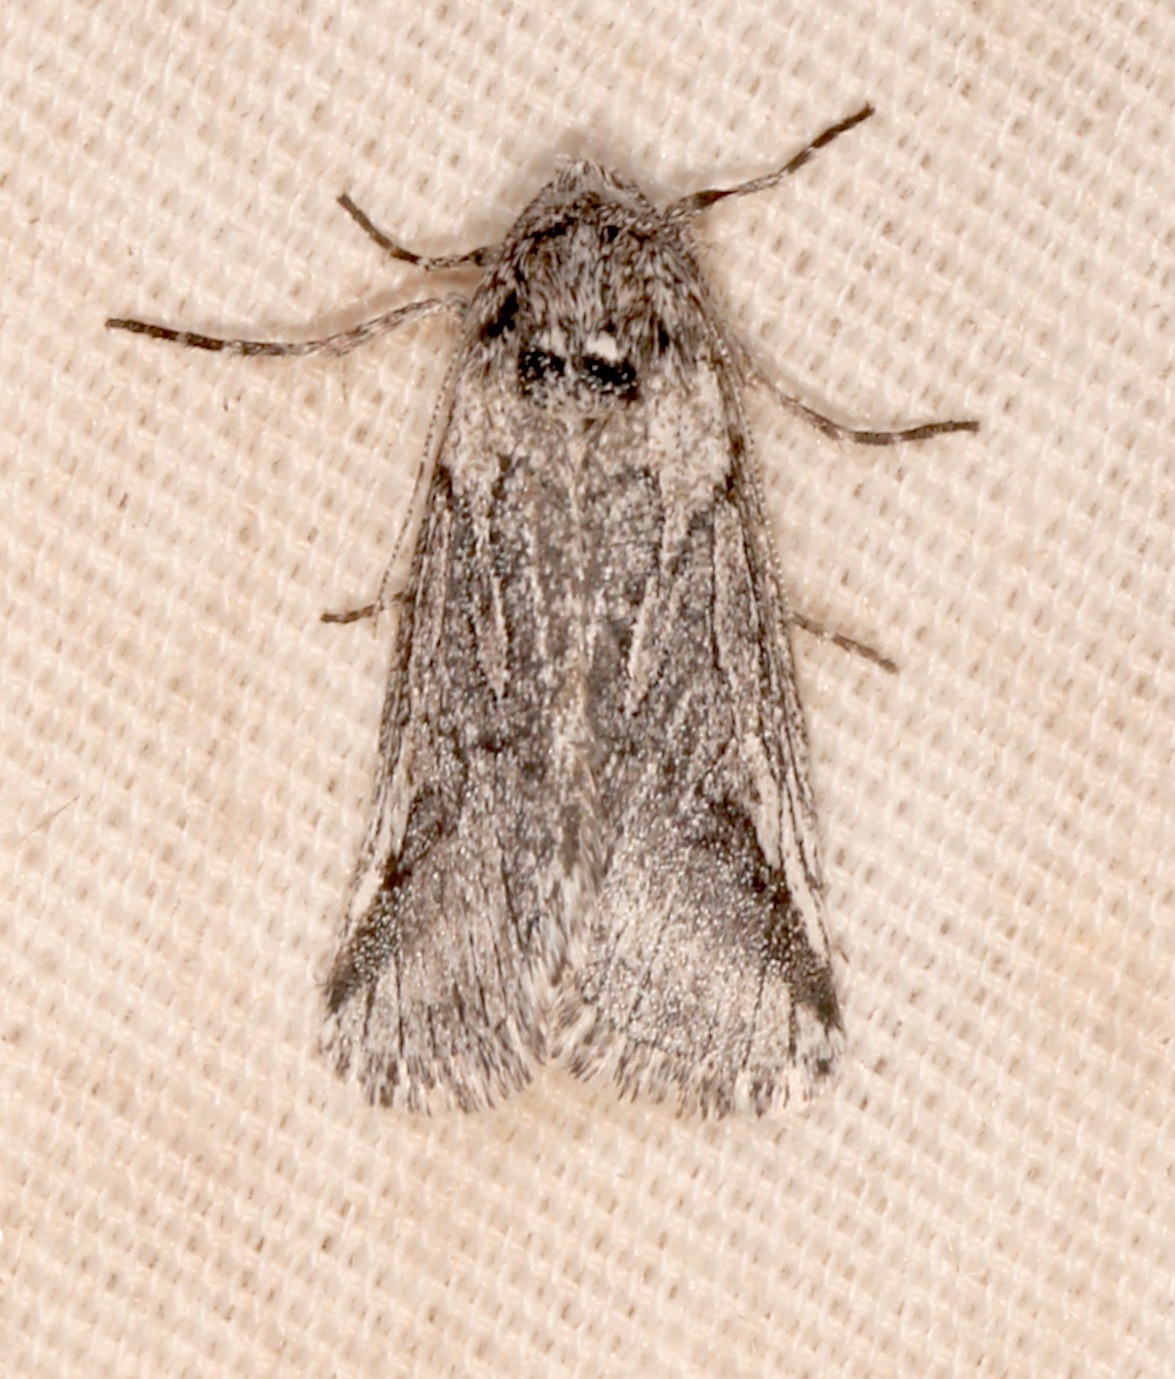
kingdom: Animalia
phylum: Arthropoda
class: Insecta
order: Lepidoptera
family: Noctuidae
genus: Oxycnemis
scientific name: Oxycnemis fusimacula
